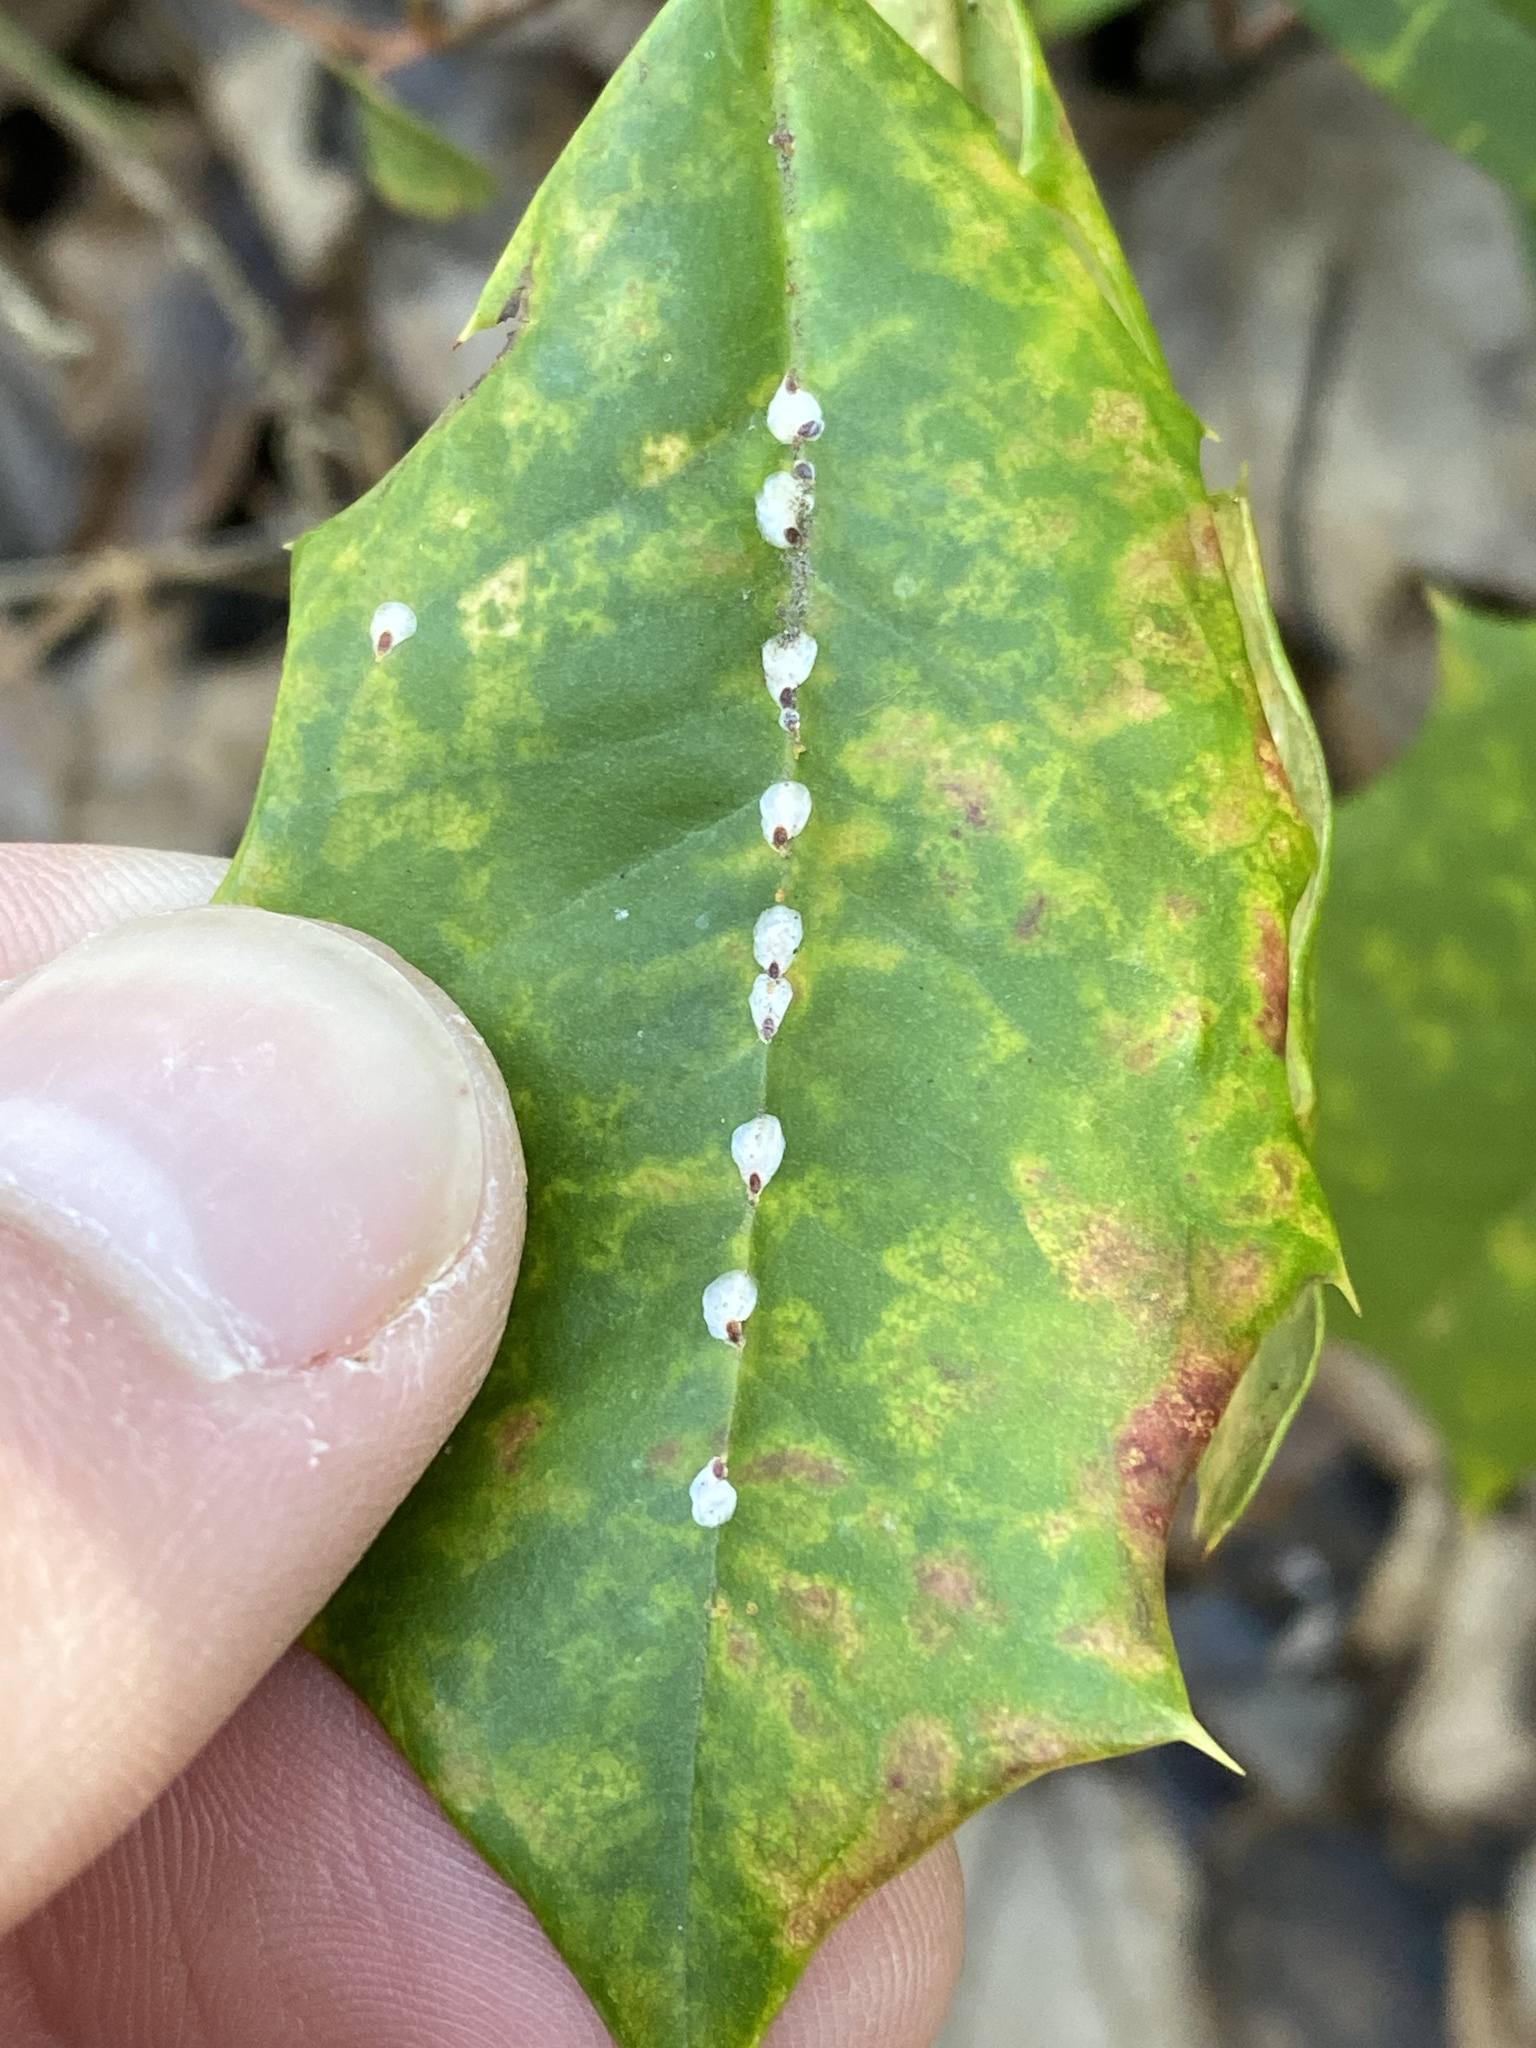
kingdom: Animalia
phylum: Arthropoda
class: Insecta
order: Hemiptera
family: Diaspididae
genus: Pseudaulacaspis
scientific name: Pseudaulacaspis cockerelli
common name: False oleander scale
